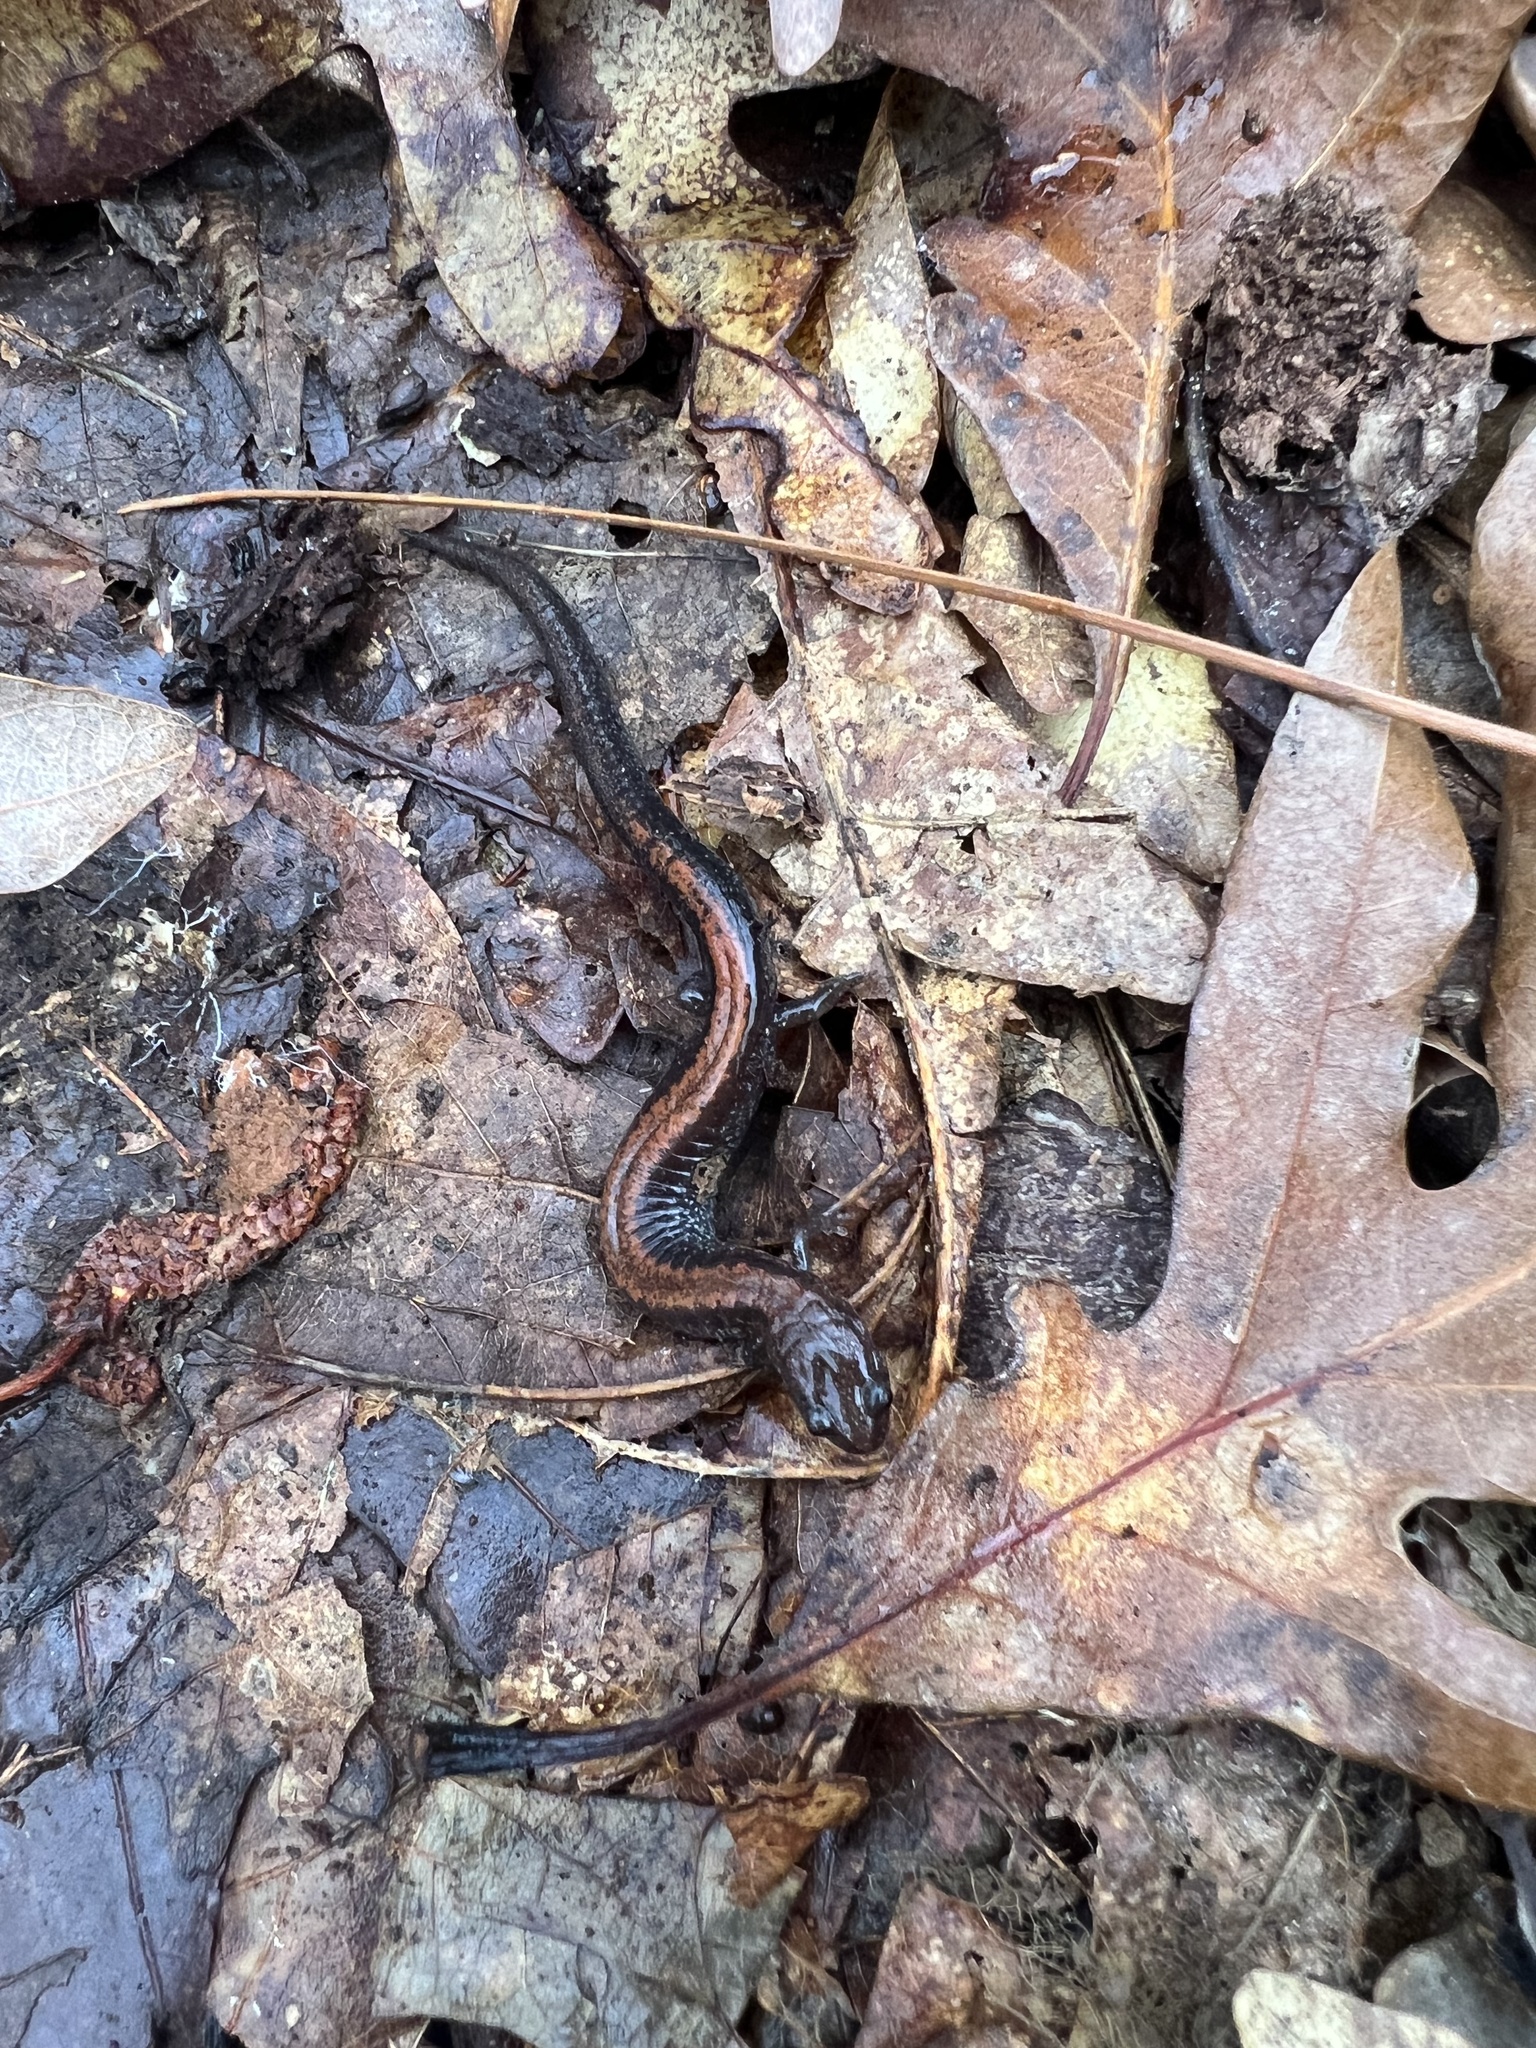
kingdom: Animalia
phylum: Chordata
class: Amphibia
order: Caudata
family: Plethodontidae
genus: Plethodon
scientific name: Plethodon cinereus
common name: Redback salamander
